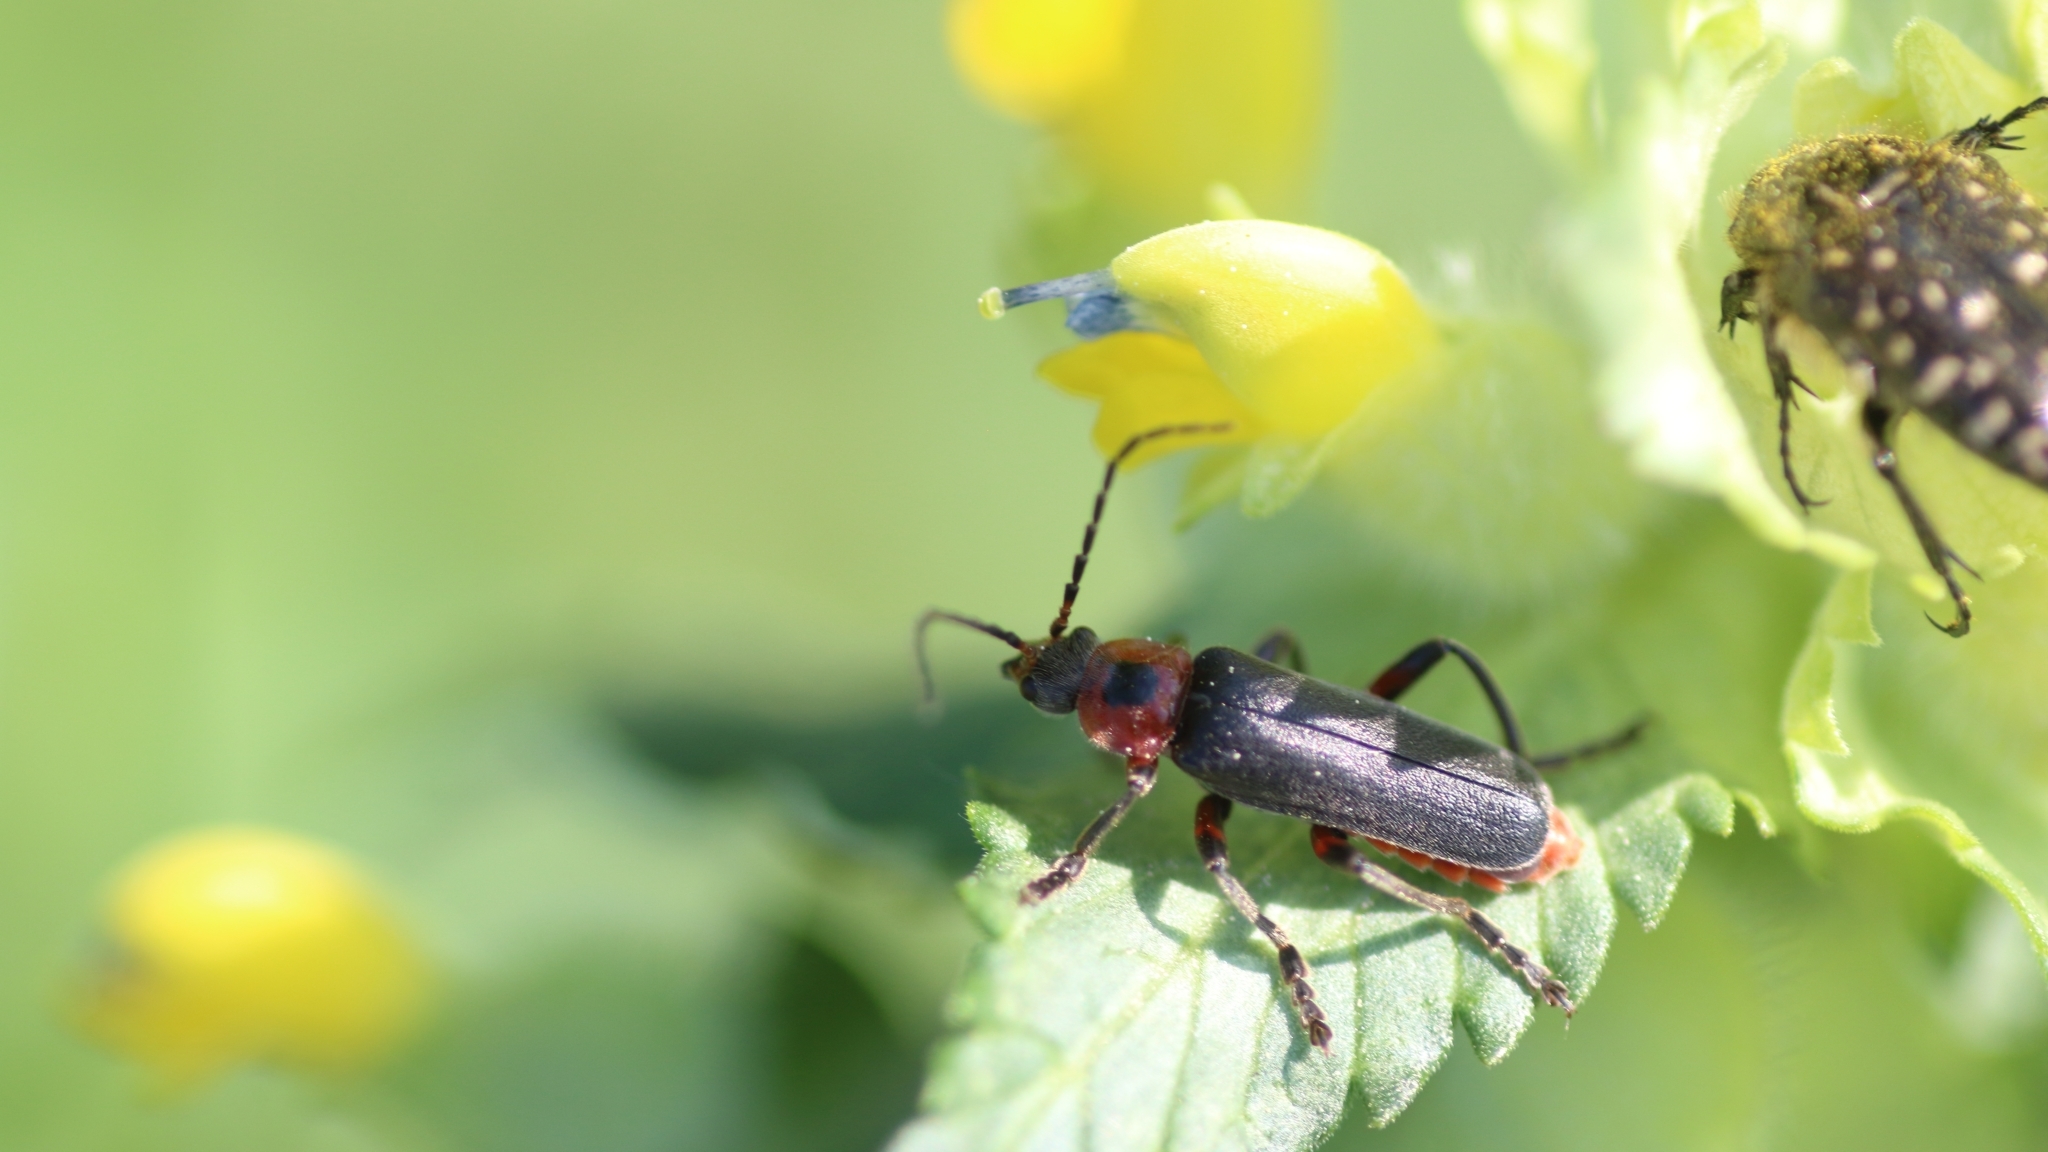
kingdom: Animalia
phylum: Arthropoda
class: Insecta
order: Coleoptera
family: Cantharidae
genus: Cantharis
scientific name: Cantharis rustica
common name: Soldier beetle
